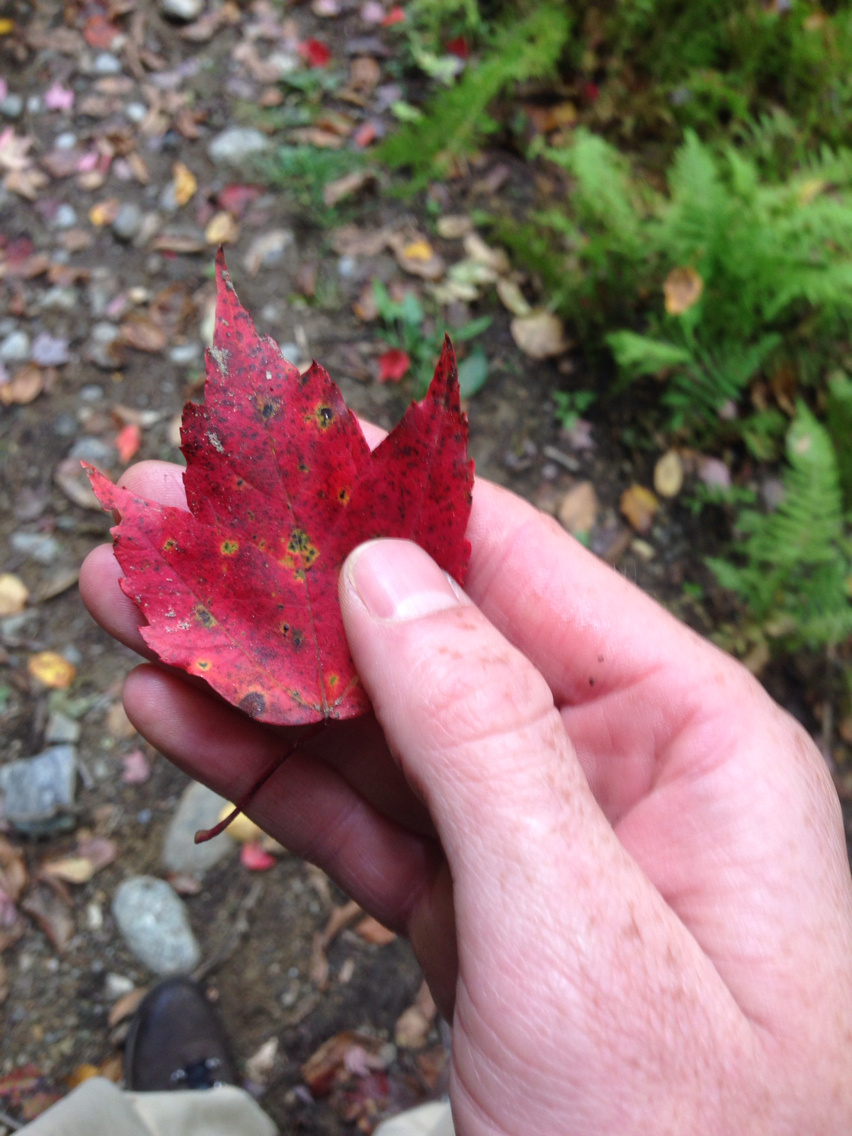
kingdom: Plantae
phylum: Tracheophyta
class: Magnoliopsida
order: Sapindales
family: Sapindaceae
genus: Acer
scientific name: Acer rubrum
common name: Red maple
